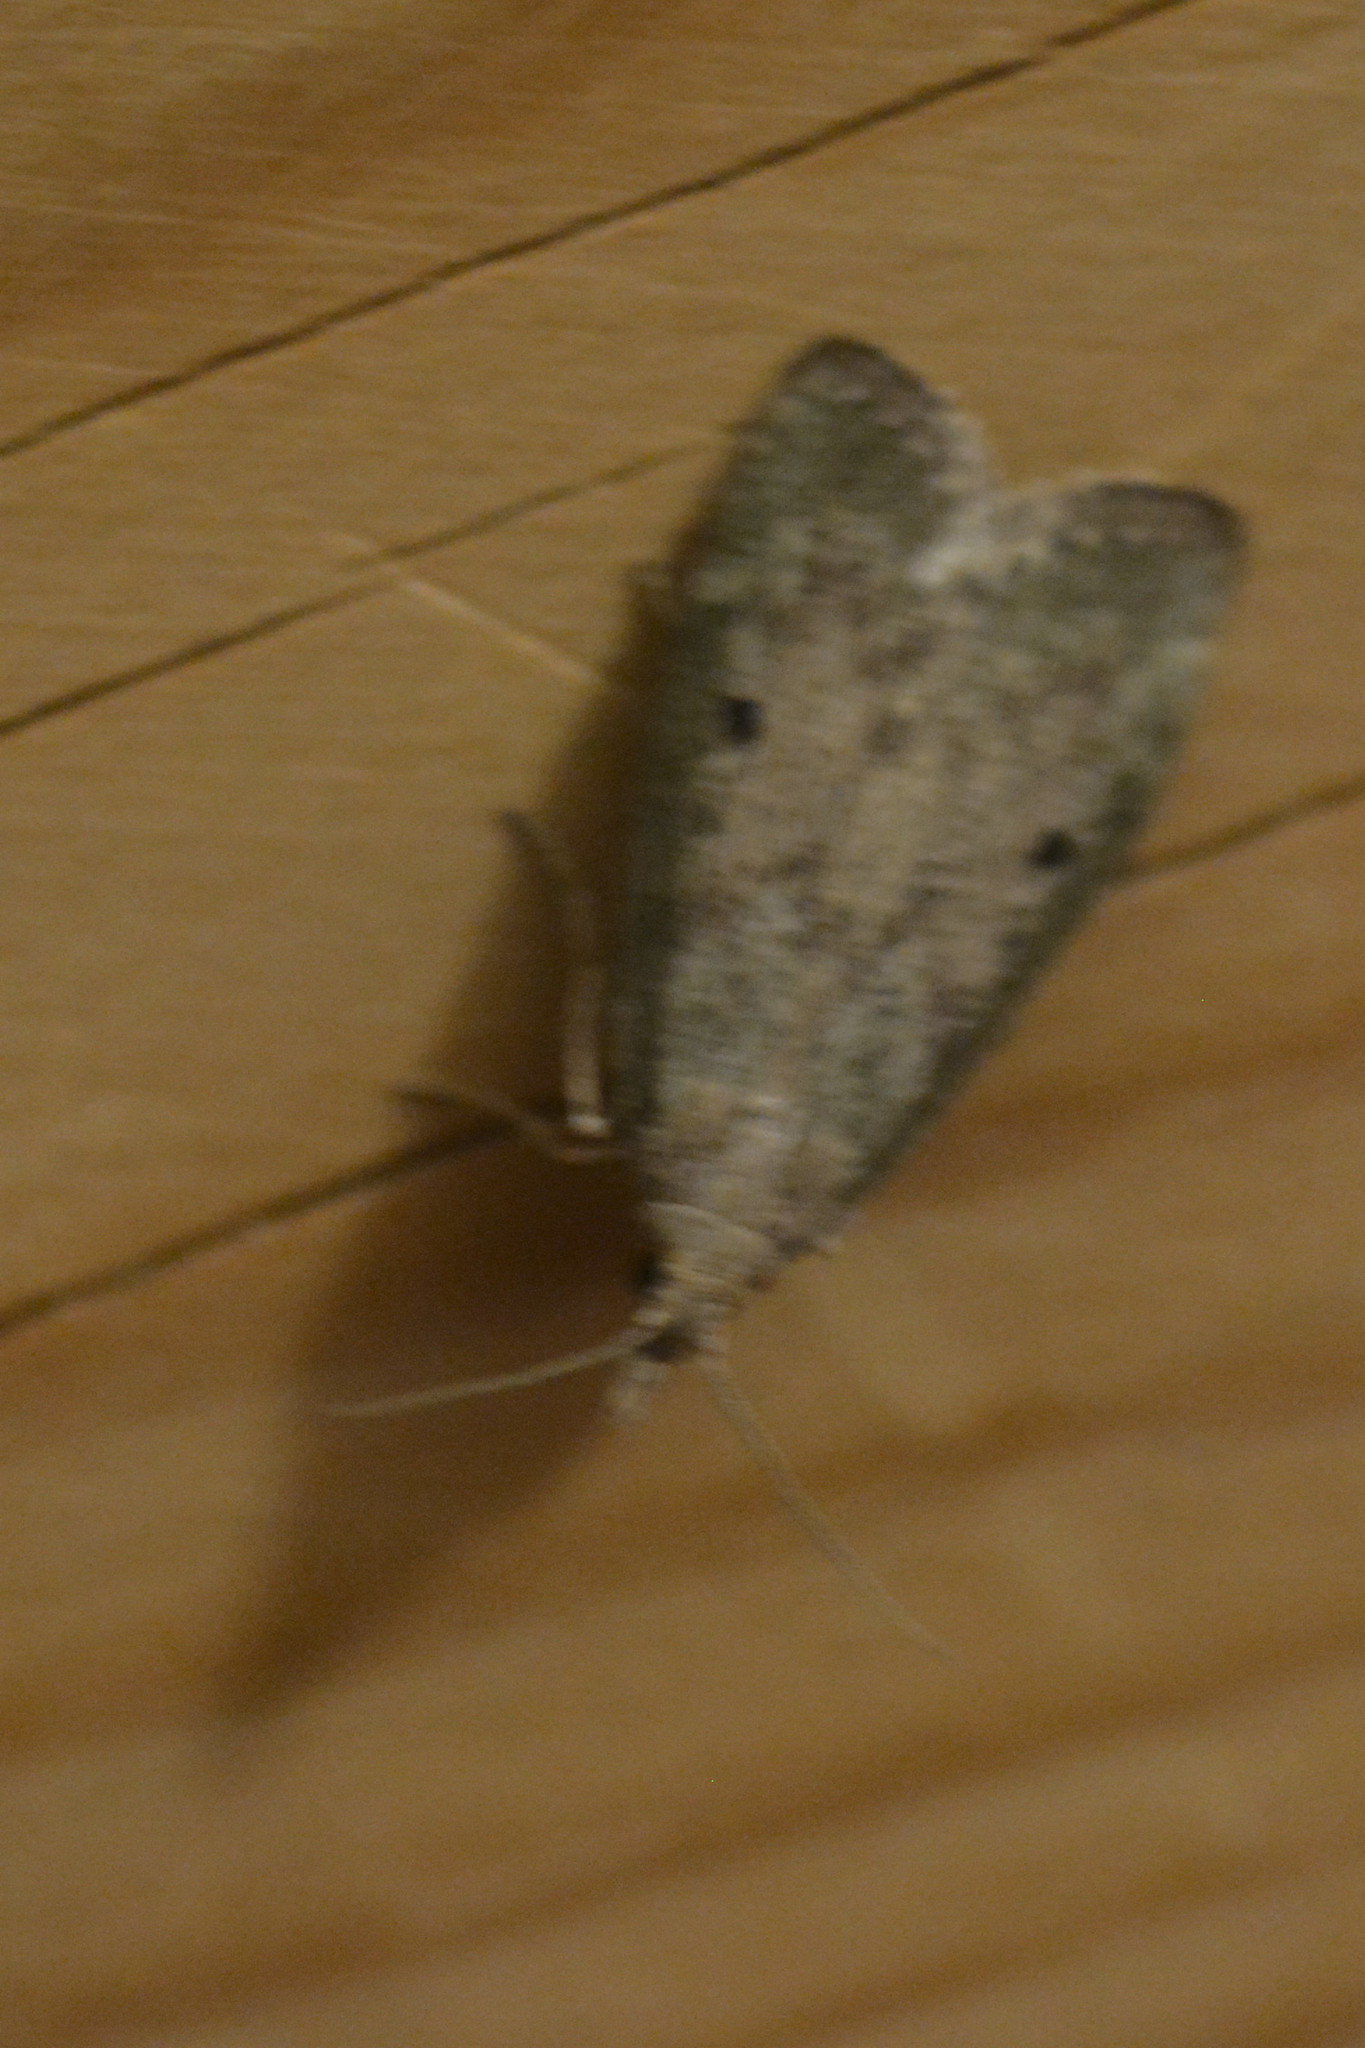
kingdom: Animalia
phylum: Arthropoda
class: Insecta
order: Lepidoptera
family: Pyralidae
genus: Aphomia
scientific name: Aphomia sociella
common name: Bee moth
